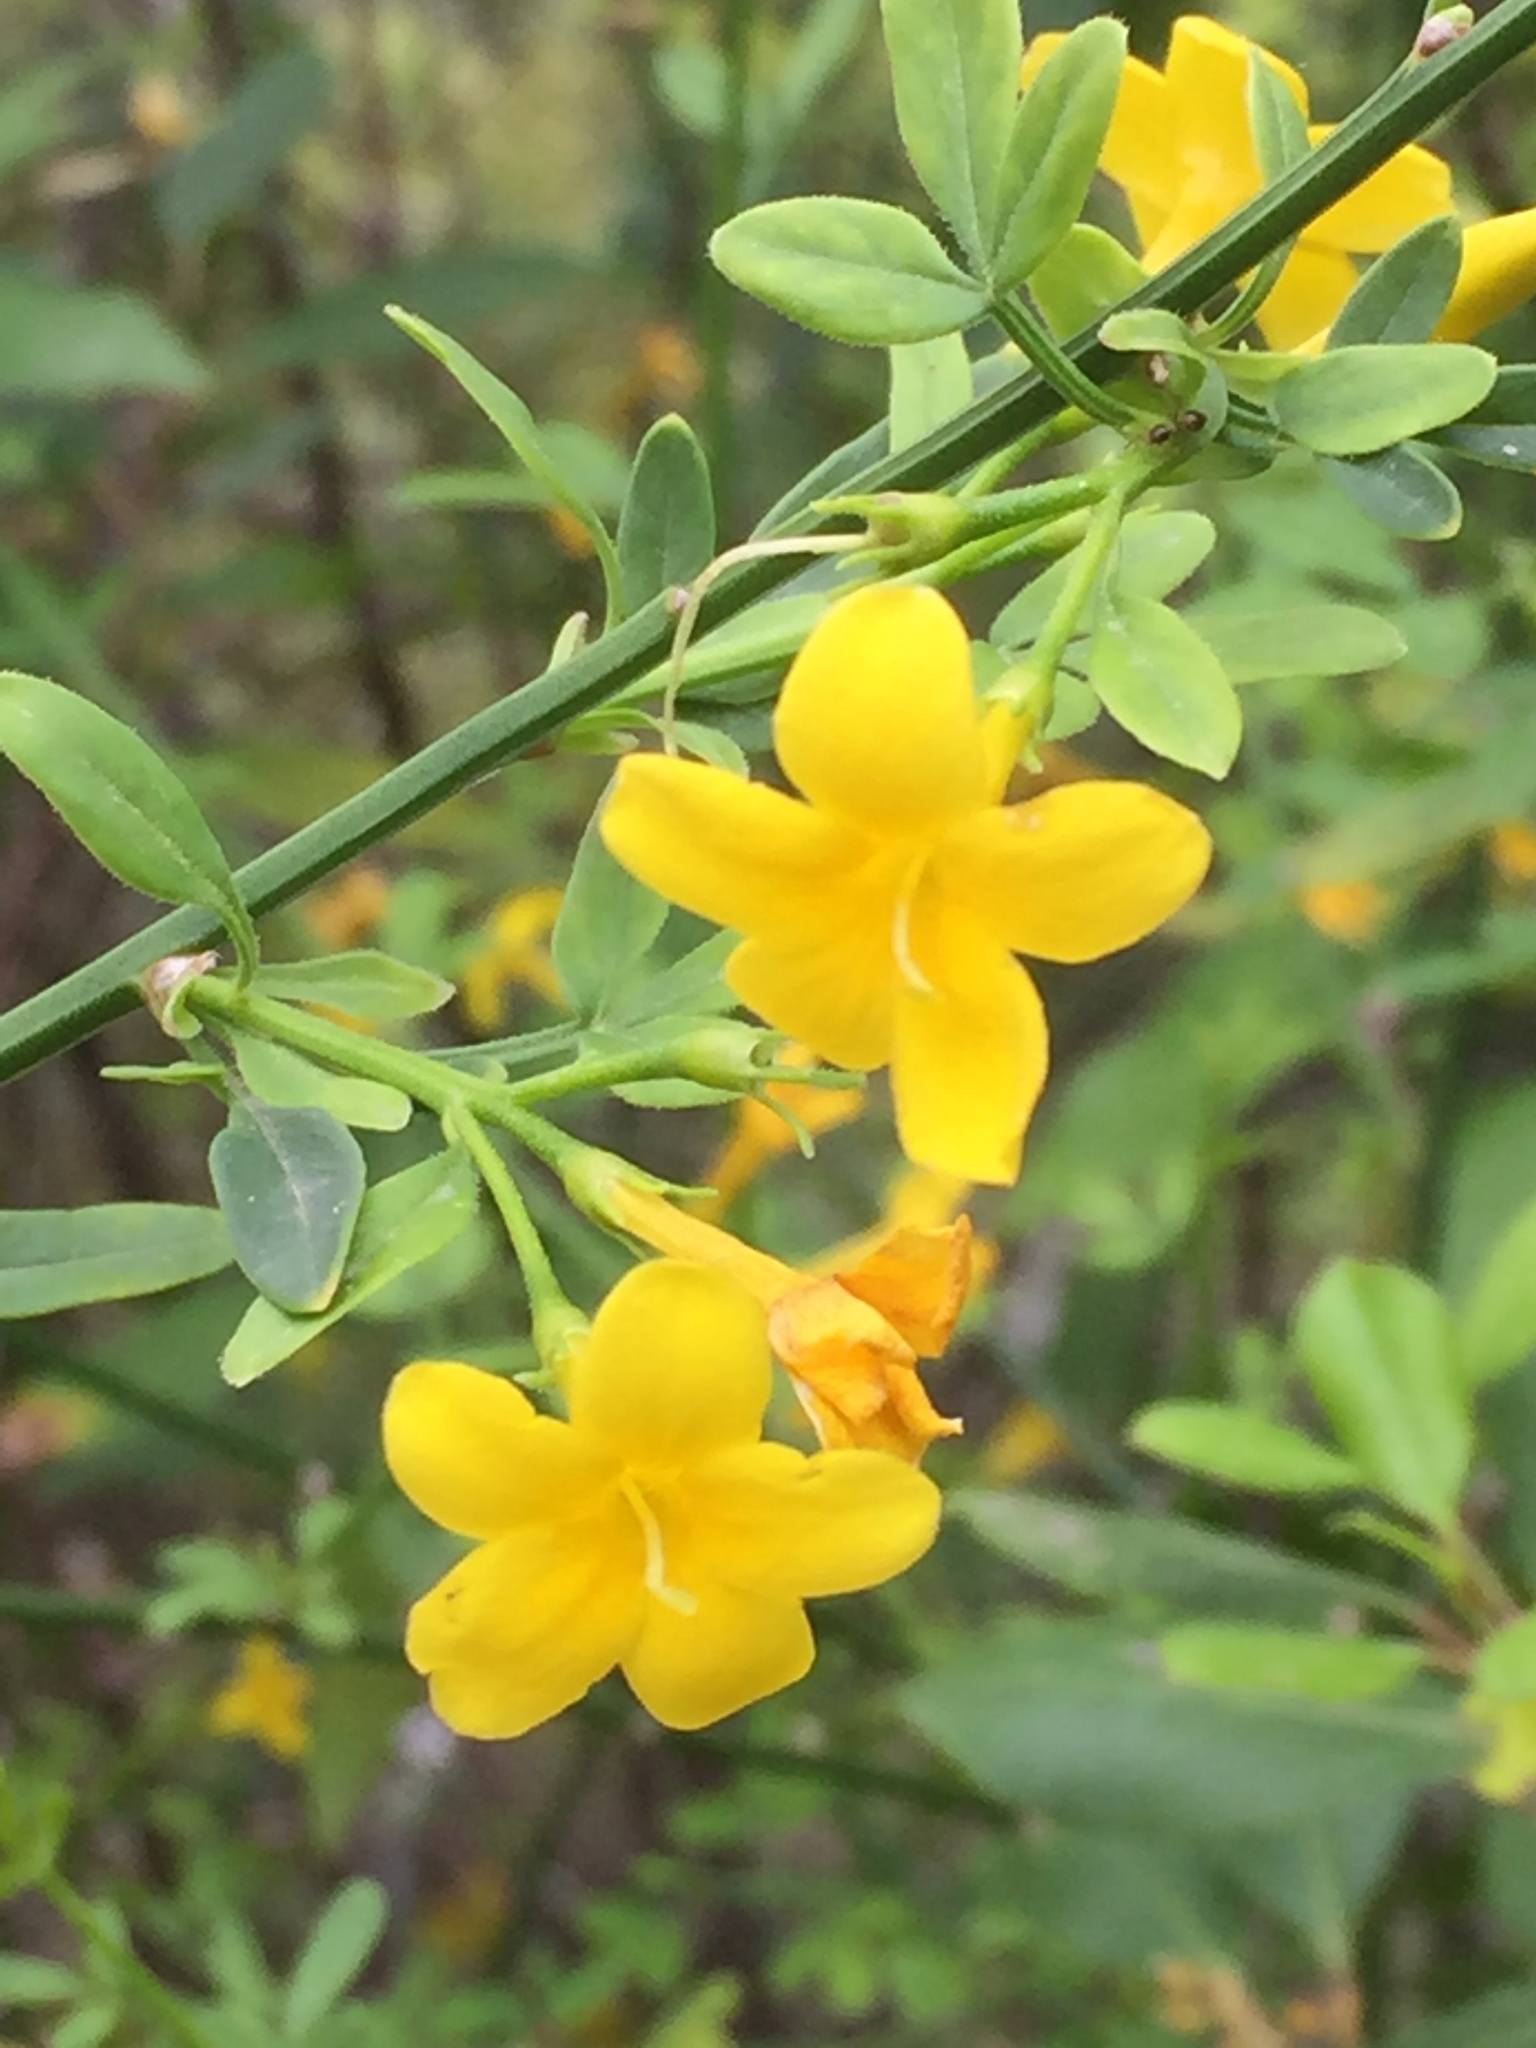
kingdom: Plantae
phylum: Tracheophyta
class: Magnoliopsida
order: Lamiales
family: Oleaceae
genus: Chrysojasminum
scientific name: Chrysojasminum fruticans
